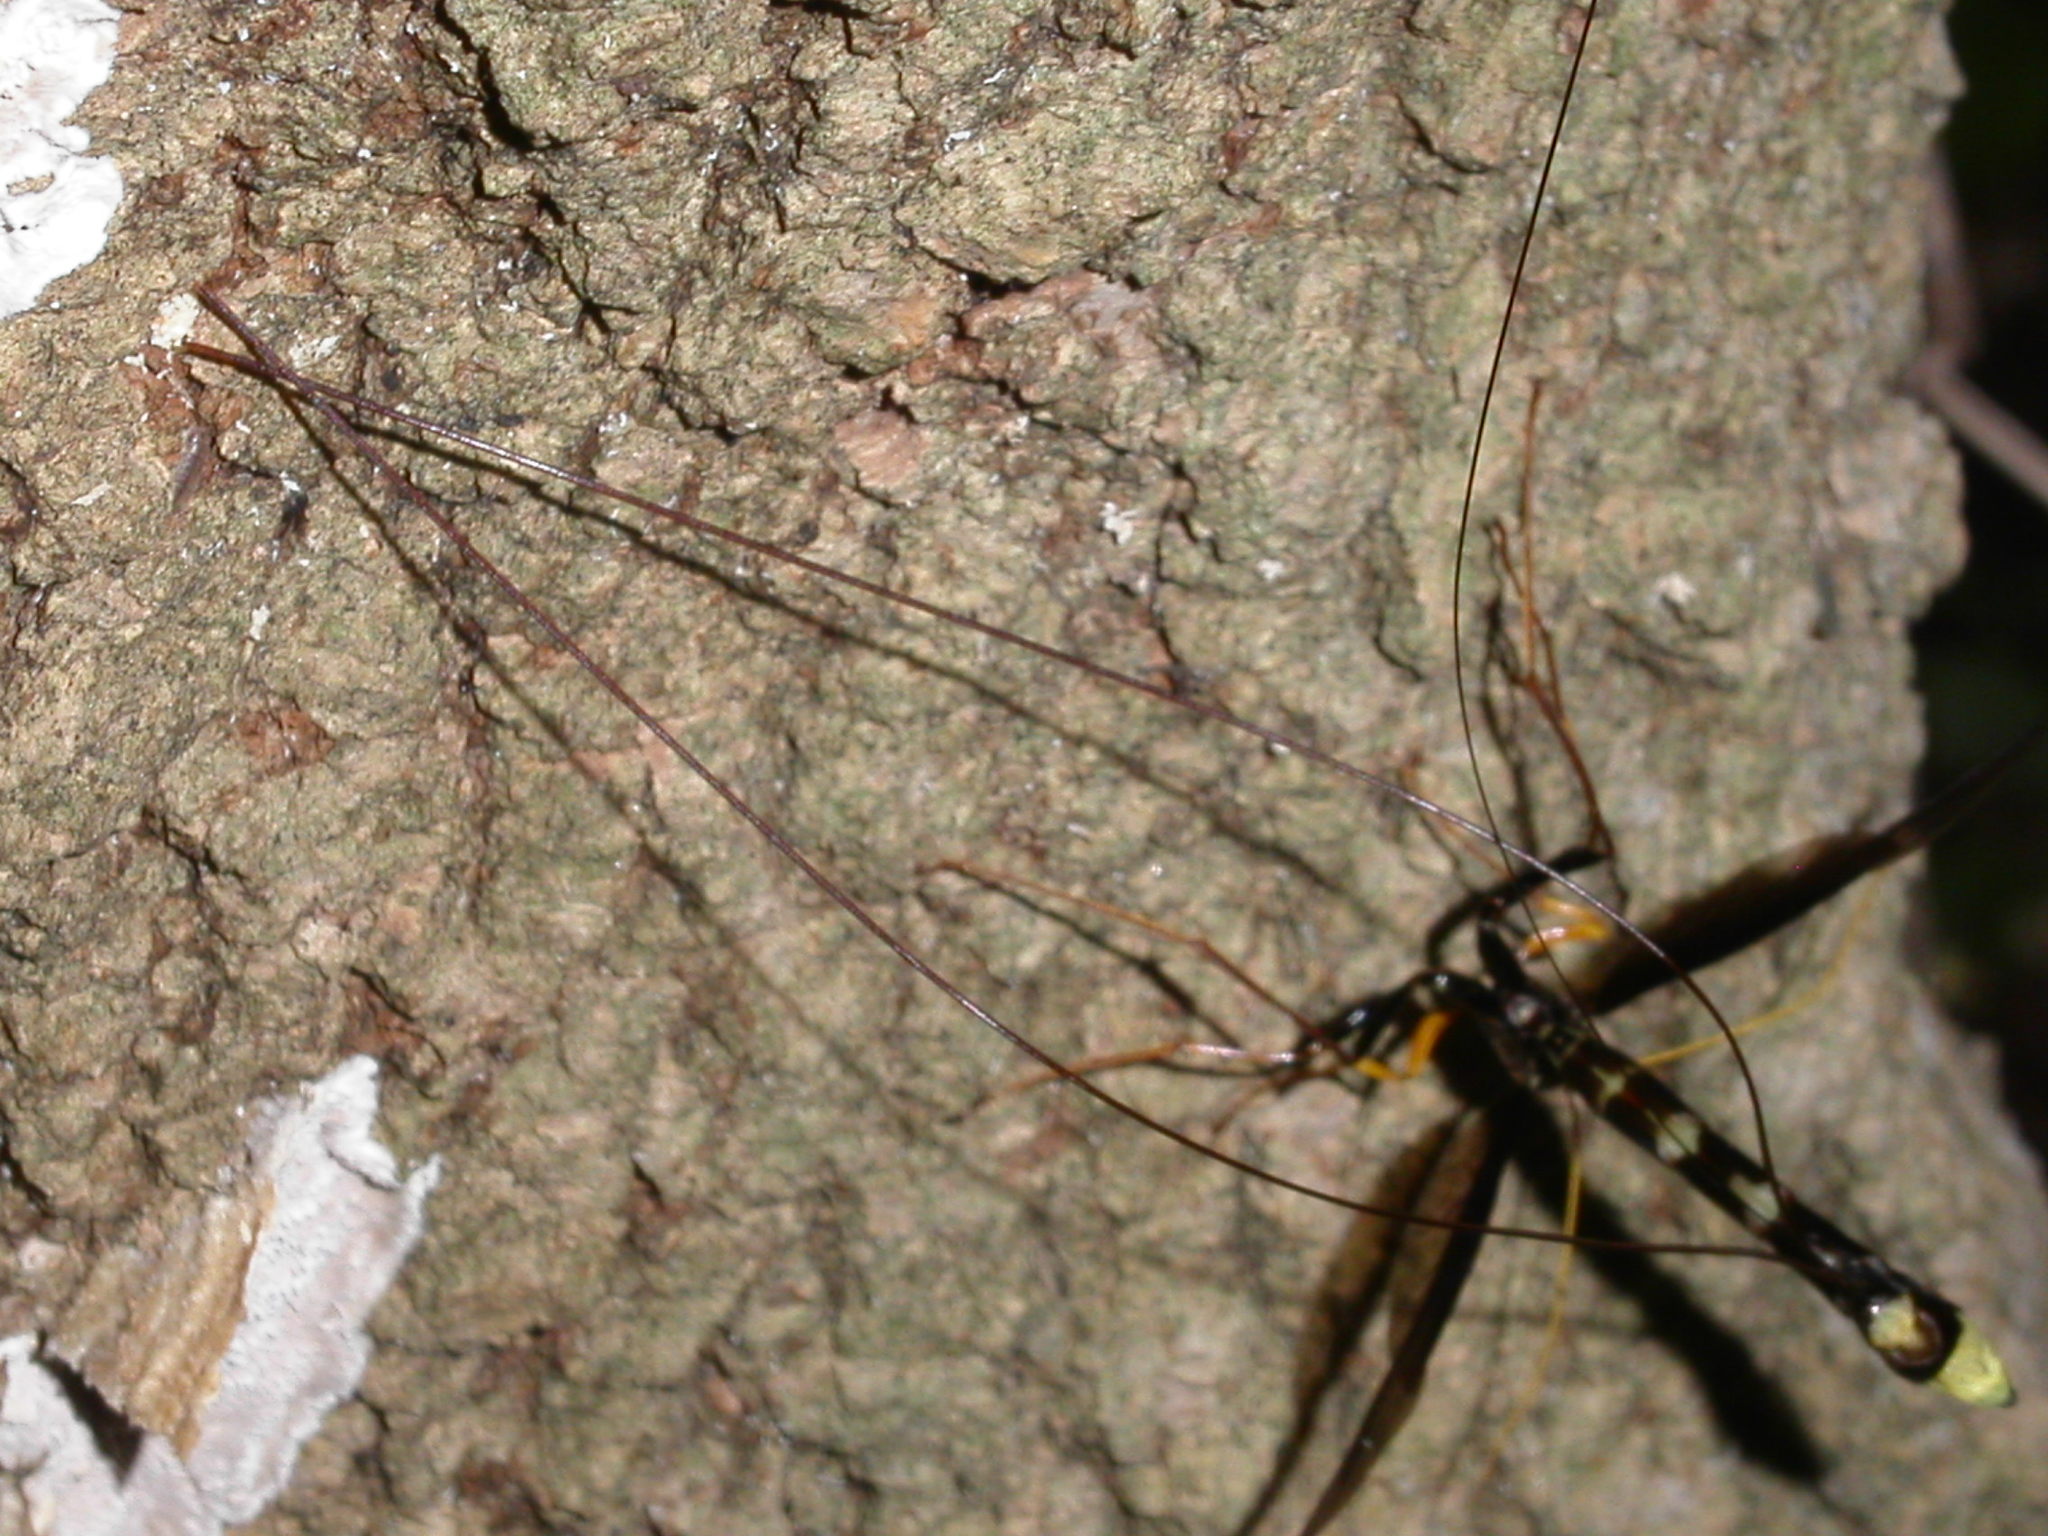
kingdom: Animalia
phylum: Arthropoda
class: Insecta
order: Hymenoptera
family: Ichneumonidae
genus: Megarhyssa
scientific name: Megarhyssa atrata
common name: Black giant ichneumonid wasp
